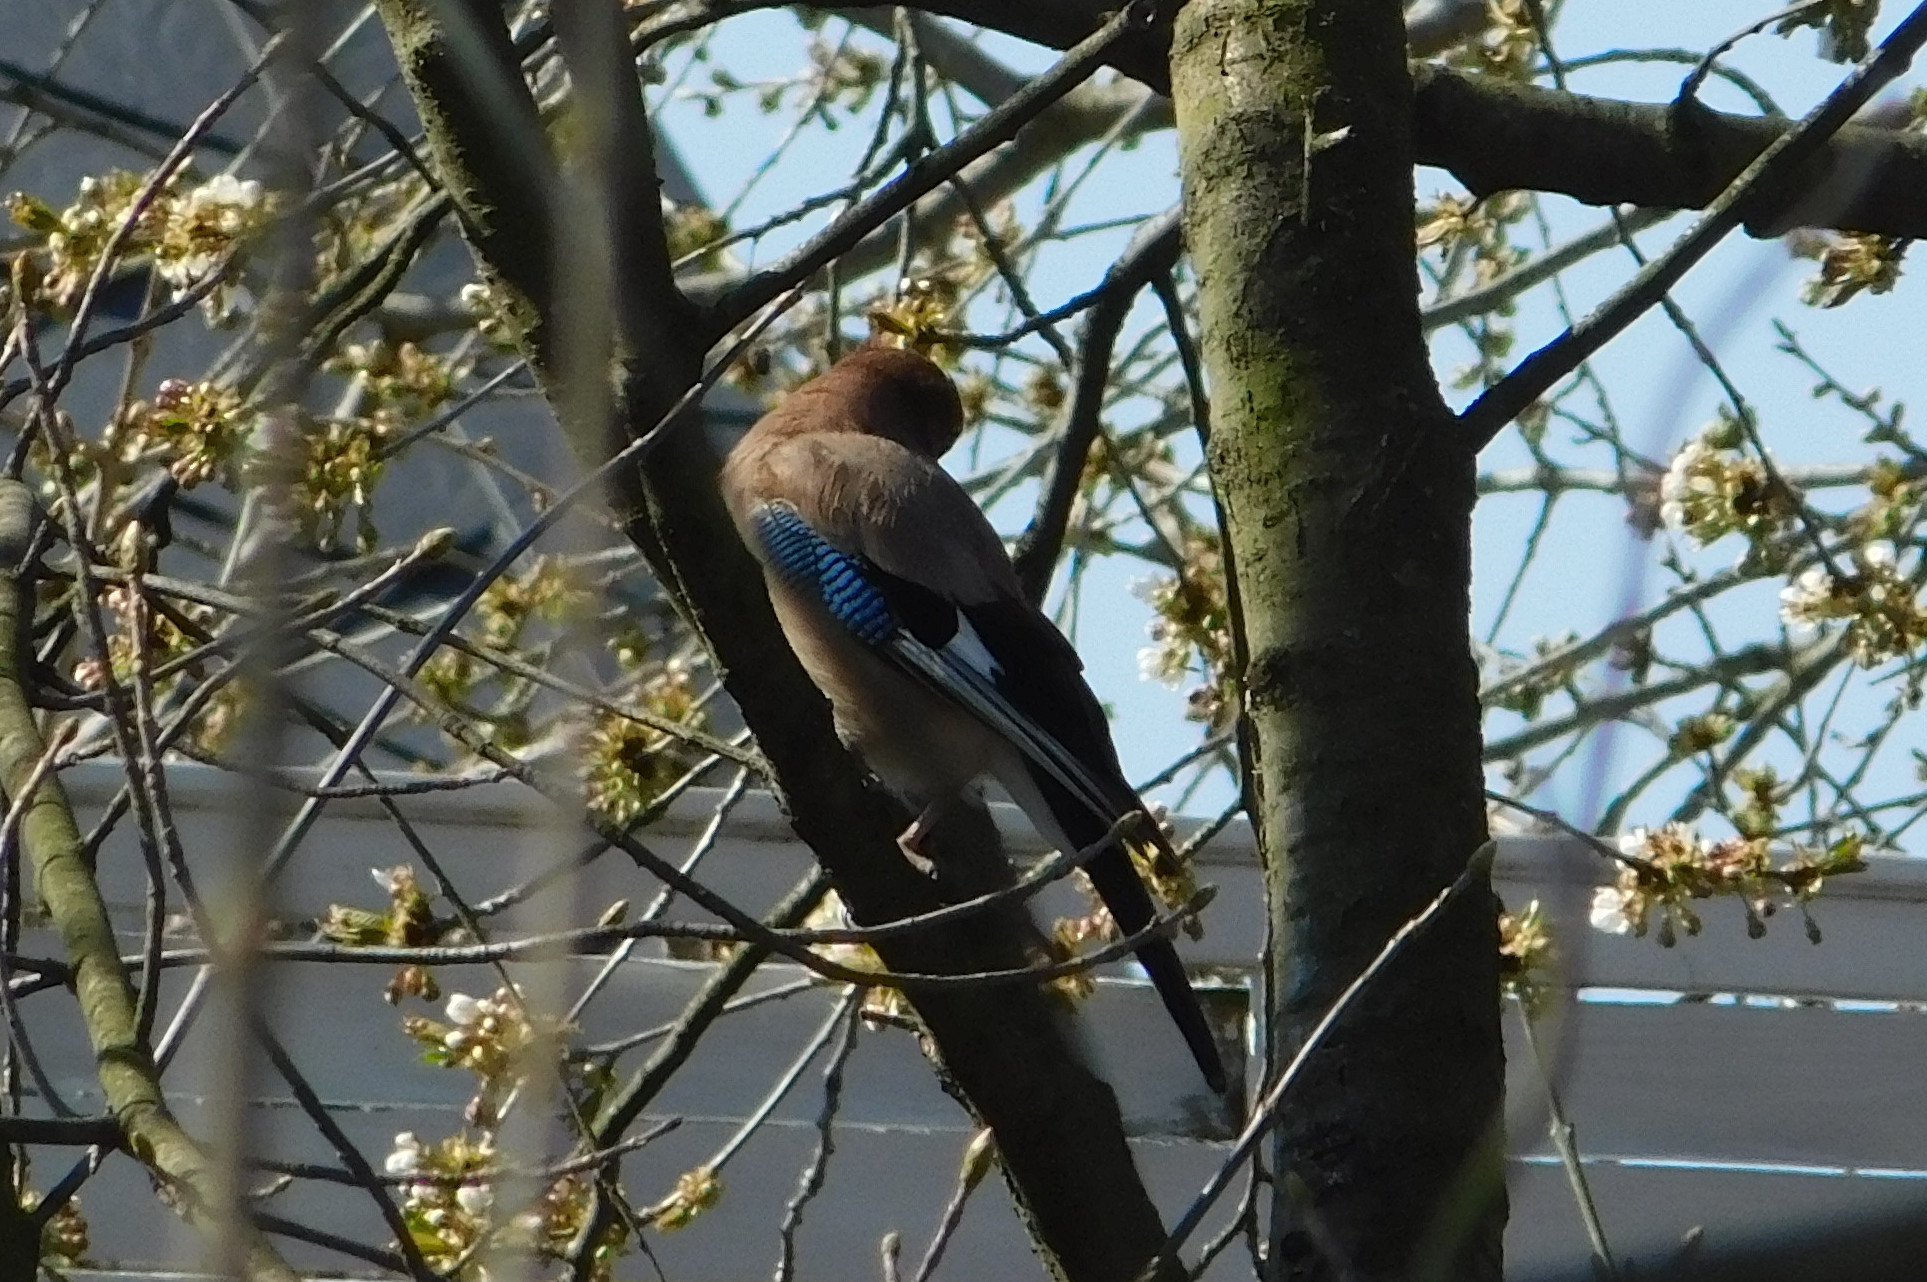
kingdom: Animalia
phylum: Chordata
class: Aves
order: Passeriformes
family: Corvidae
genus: Garrulus
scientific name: Garrulus glandarius
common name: Eurasian jay
